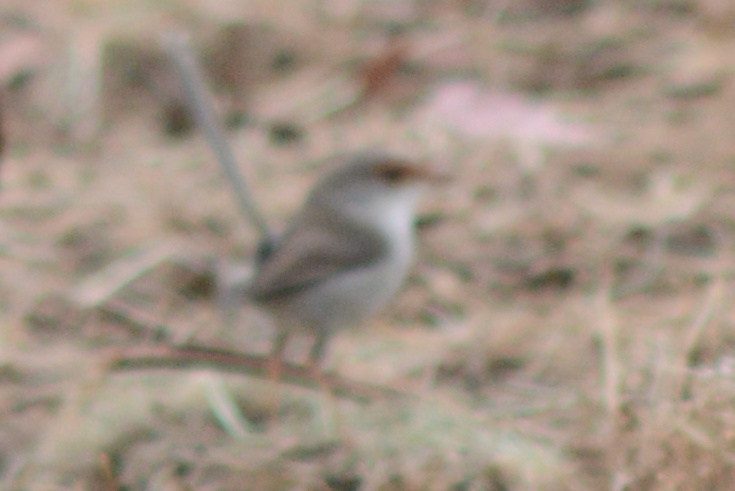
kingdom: Animalia
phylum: Chordata
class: Aves
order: Passeriformes
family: Maluridae
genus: Malurus
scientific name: Malurus cyaneus
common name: Superb fairywren
